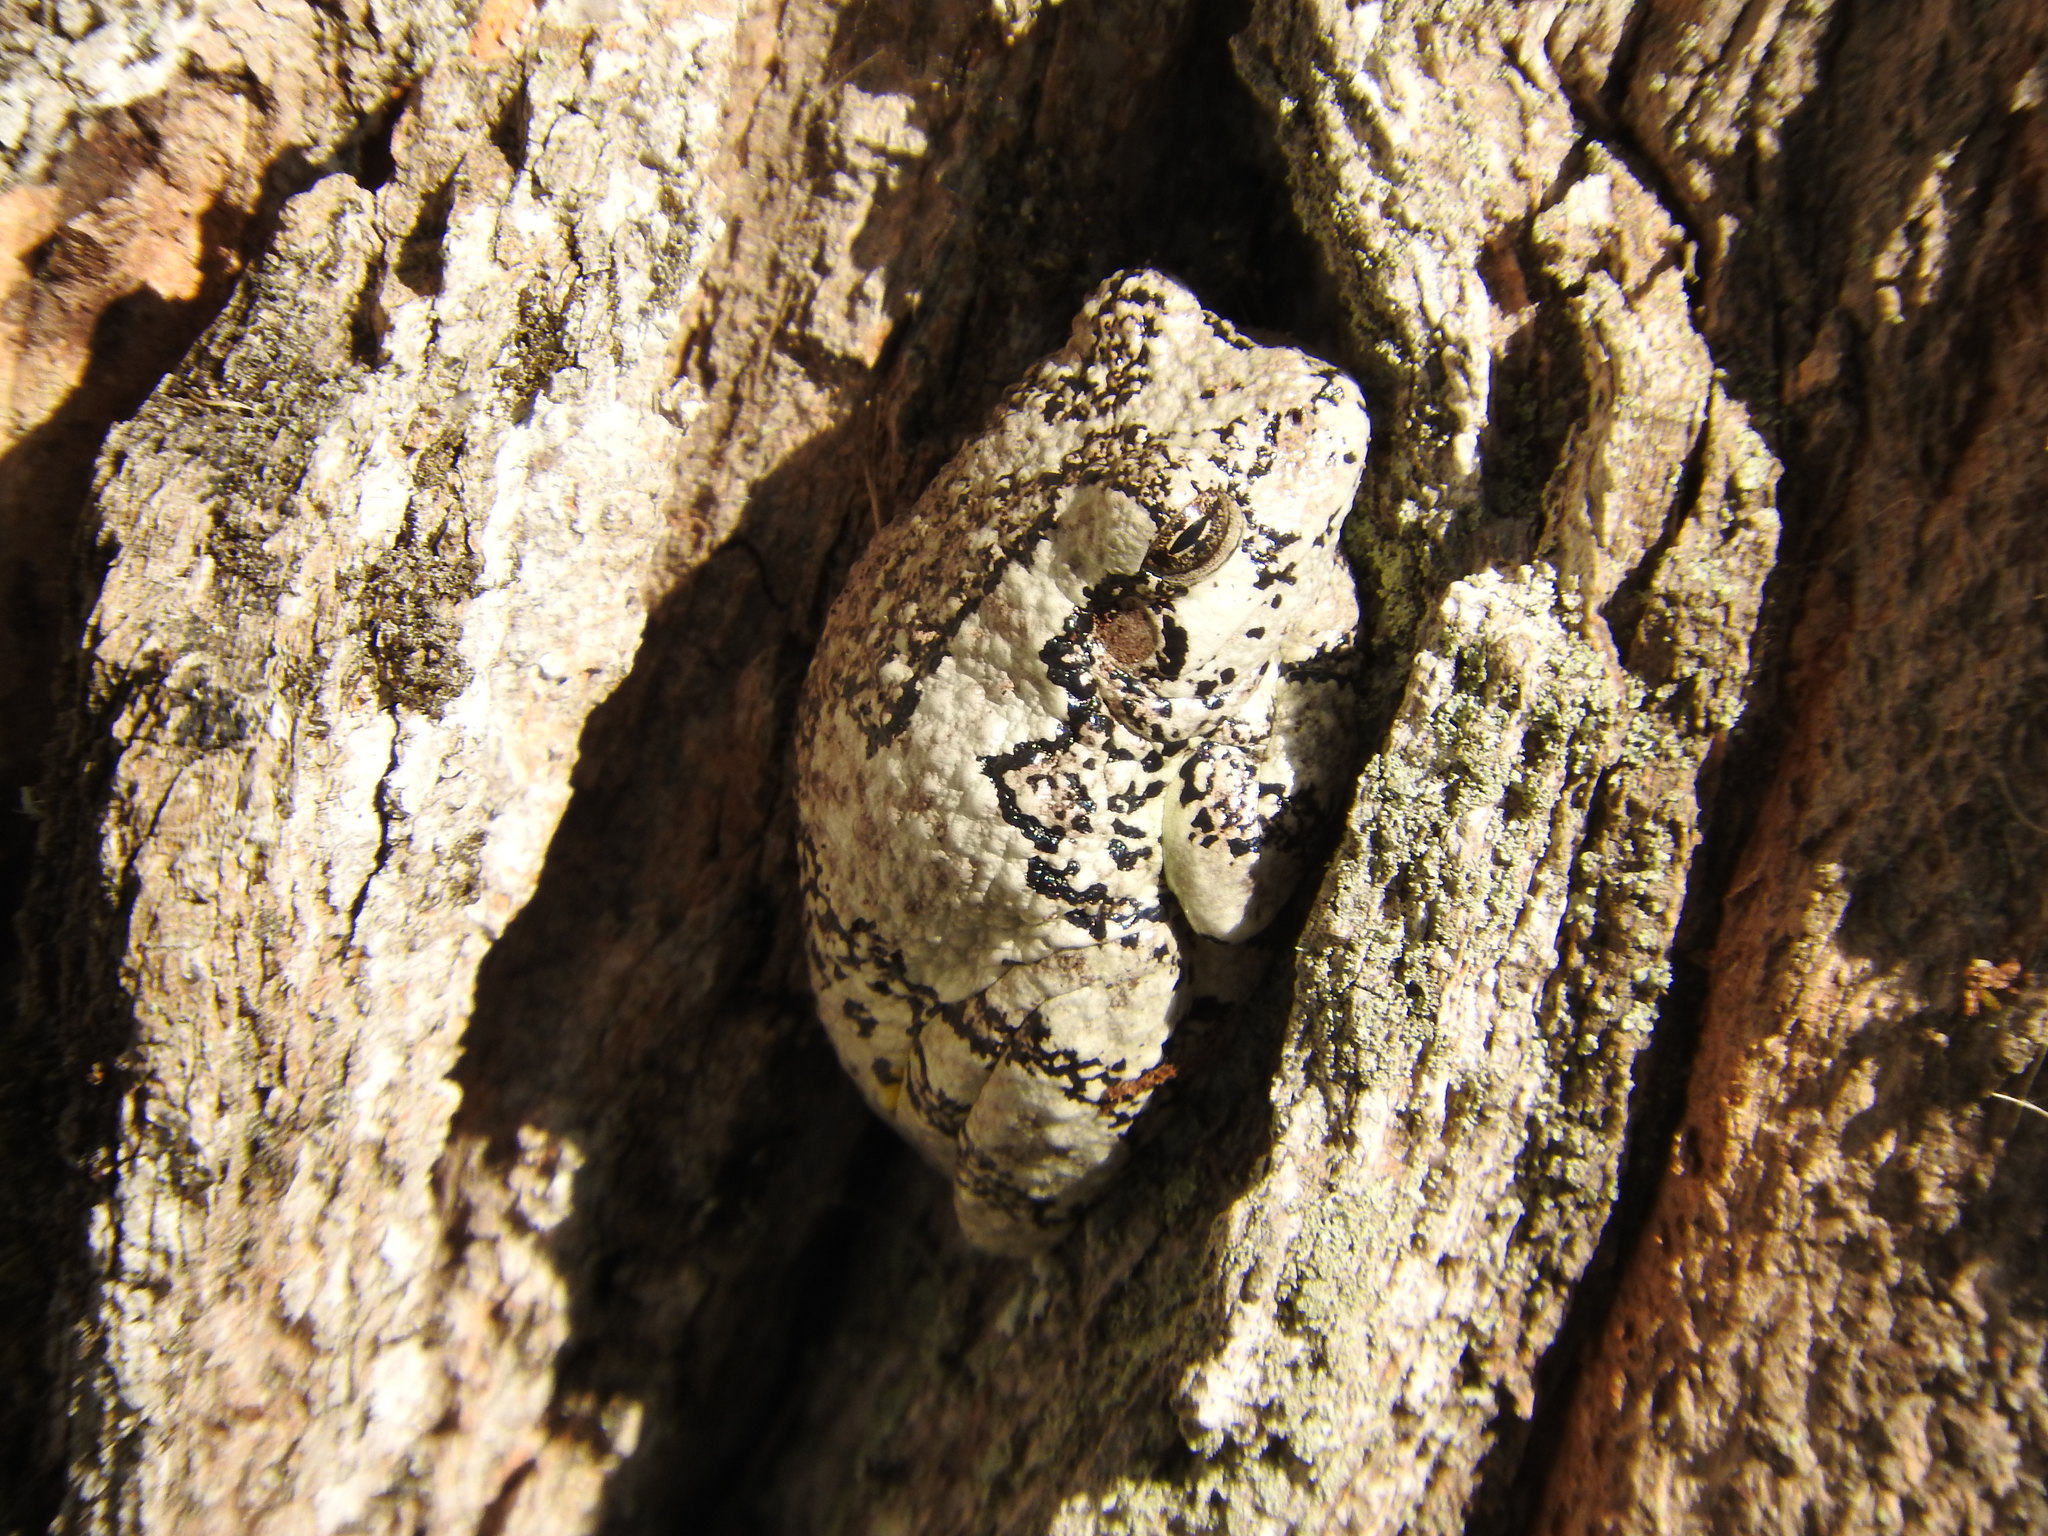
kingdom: Animalia
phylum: Chordata
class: Amphibia
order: Anura
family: Hylidae
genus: Dryophytes
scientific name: Dryophytes versicolor
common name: Gray treefrog
